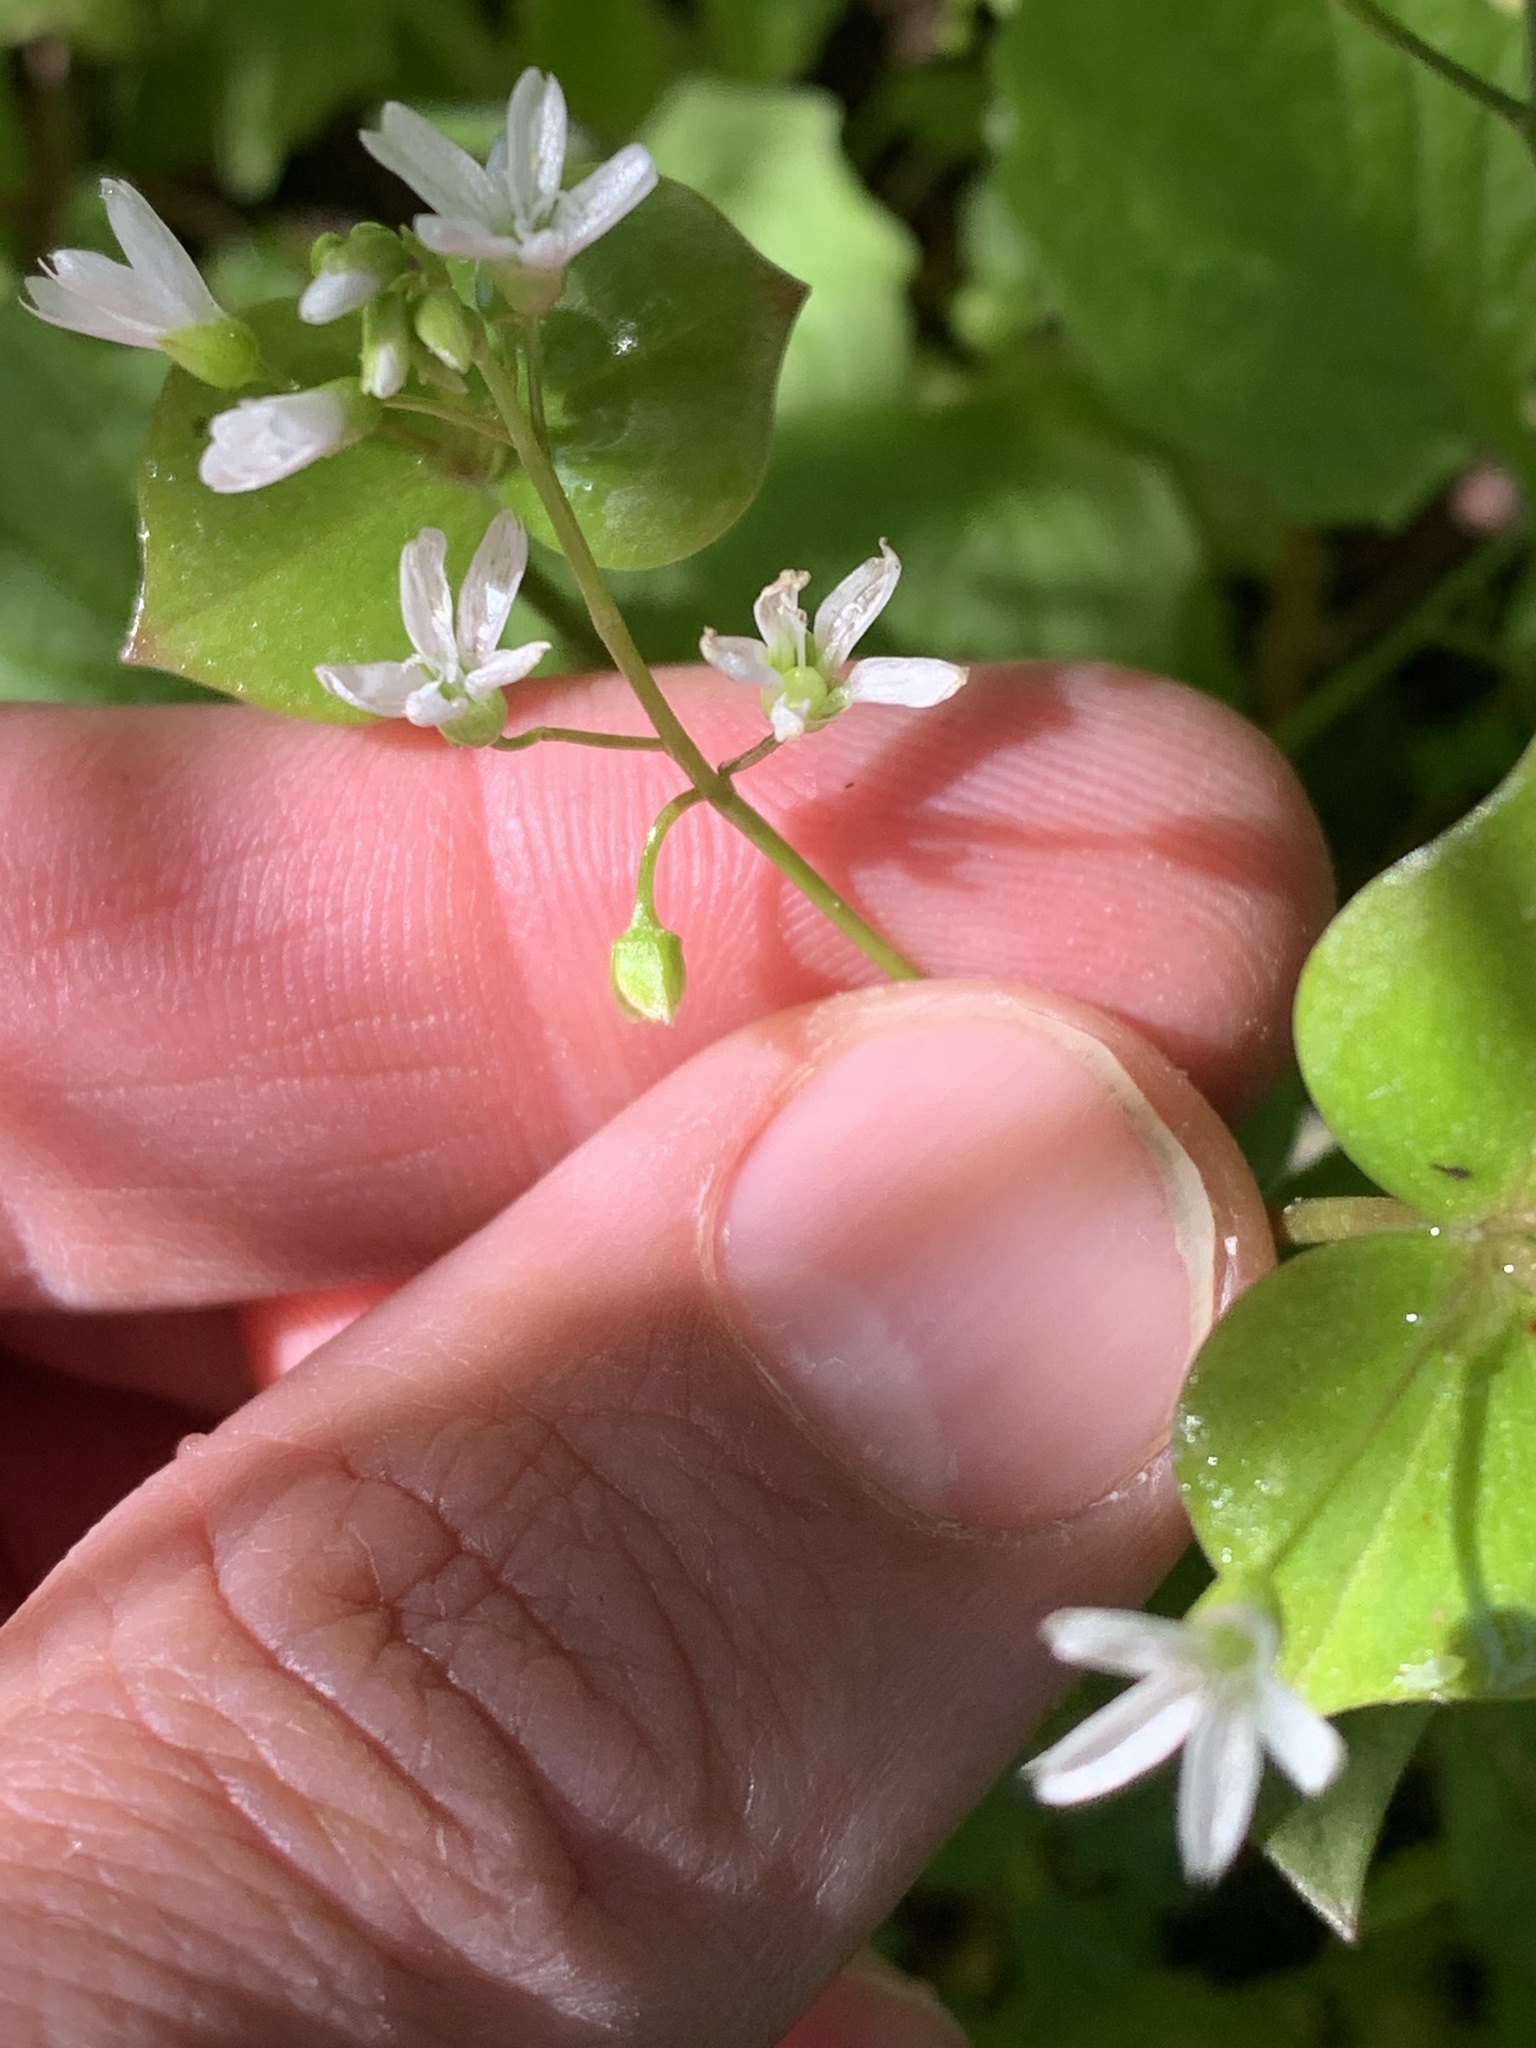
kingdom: Plantae
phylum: Tracheophyta
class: Magnoliopsida
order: Caryophyllales
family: Montiaceae
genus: Claytonia
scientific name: Claytonia washingtoniana
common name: Lake washington claytonia
